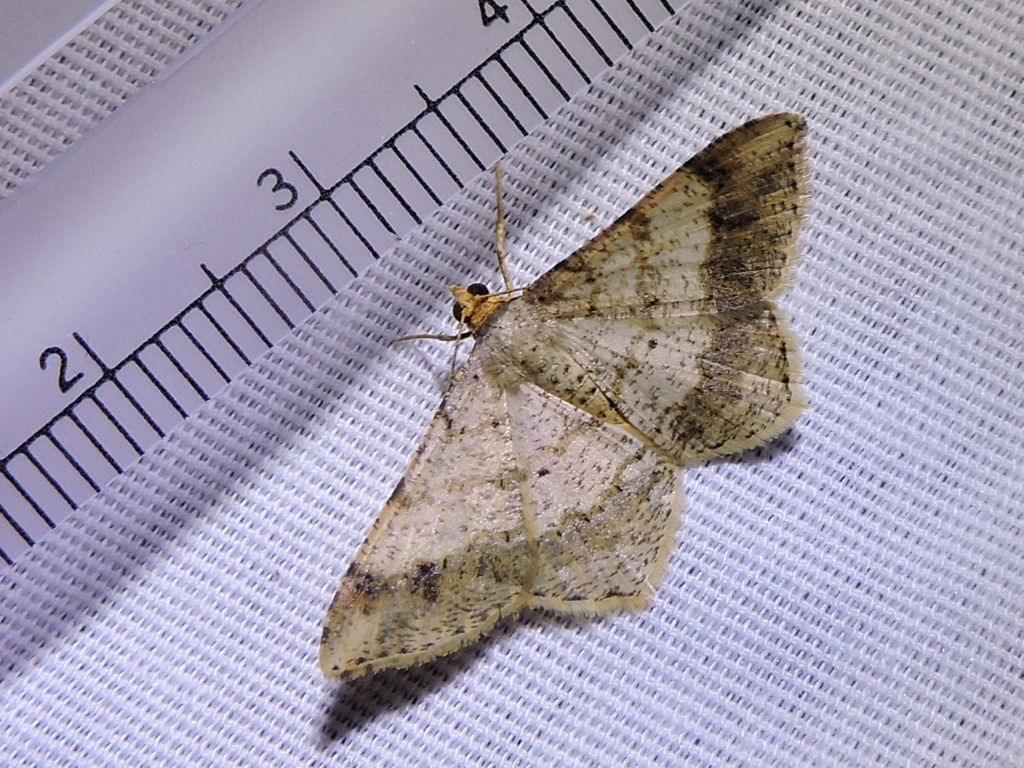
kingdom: Animalia
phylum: Arthropoda
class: Insecta
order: Lepidoptera
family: Geometridae
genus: Macaria
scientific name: Macaria abydata
